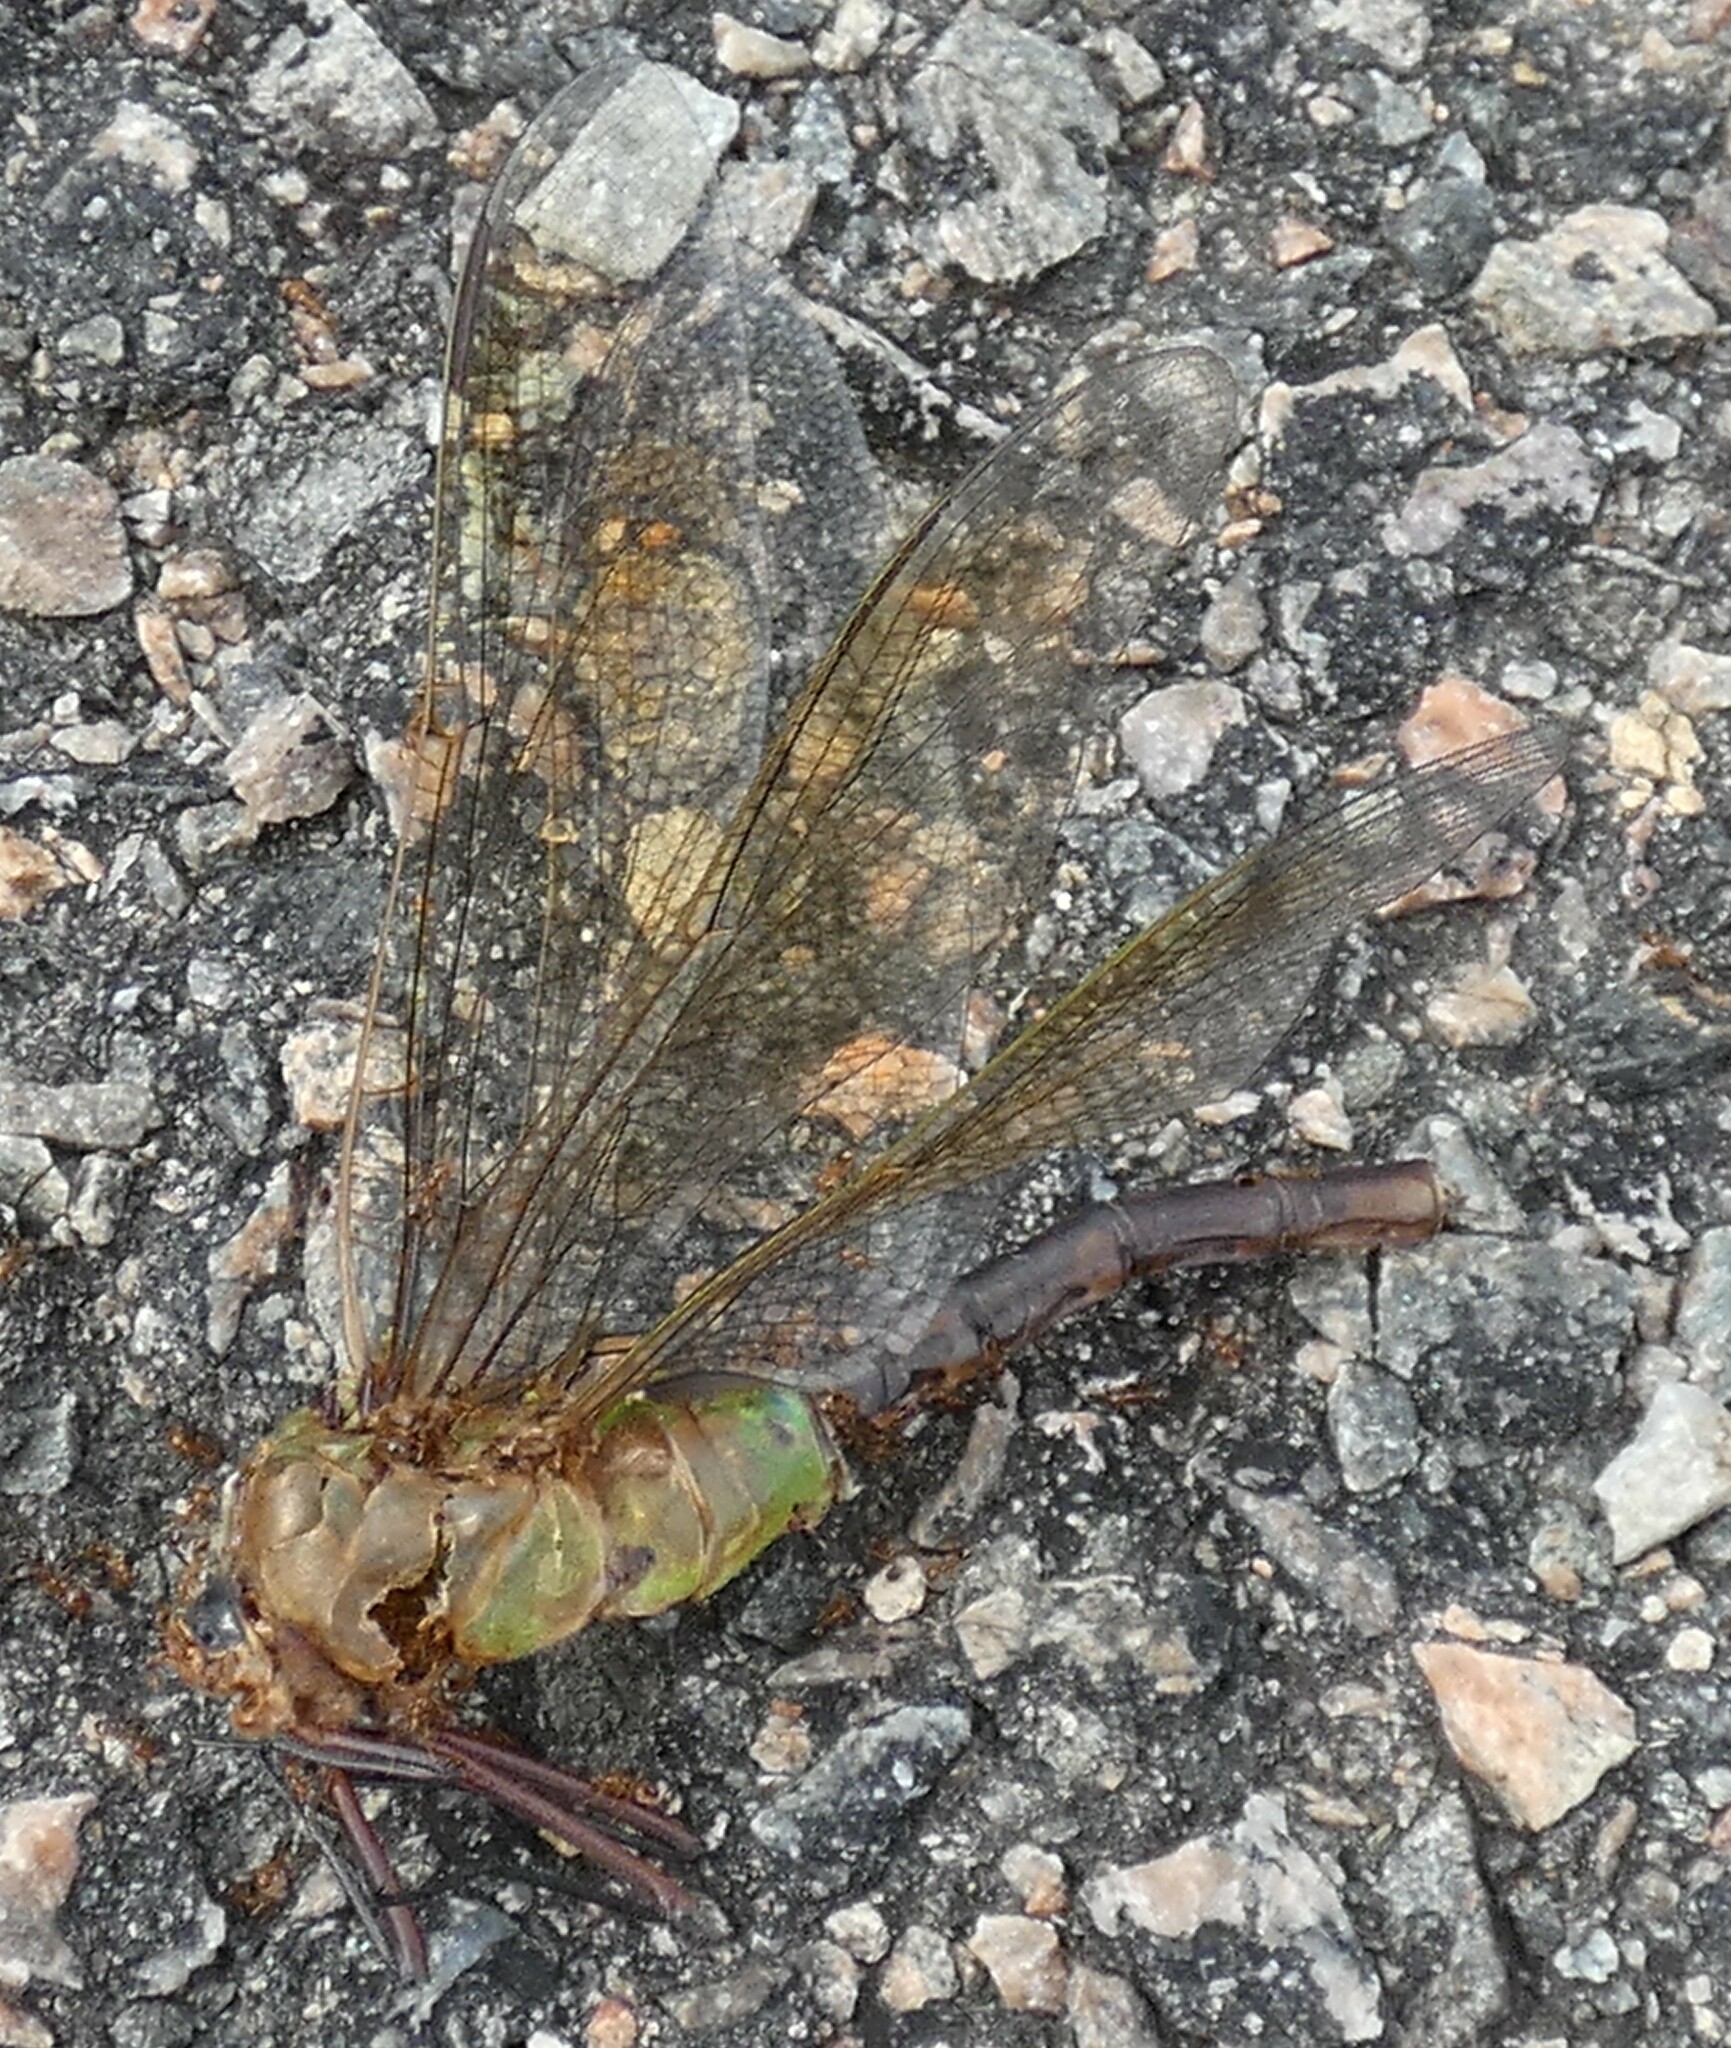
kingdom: Animalia
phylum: Arthropoda
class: Insecta
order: Odonata
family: Aeshnidae
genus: Anax
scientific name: Anax junius
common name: Common green darner
